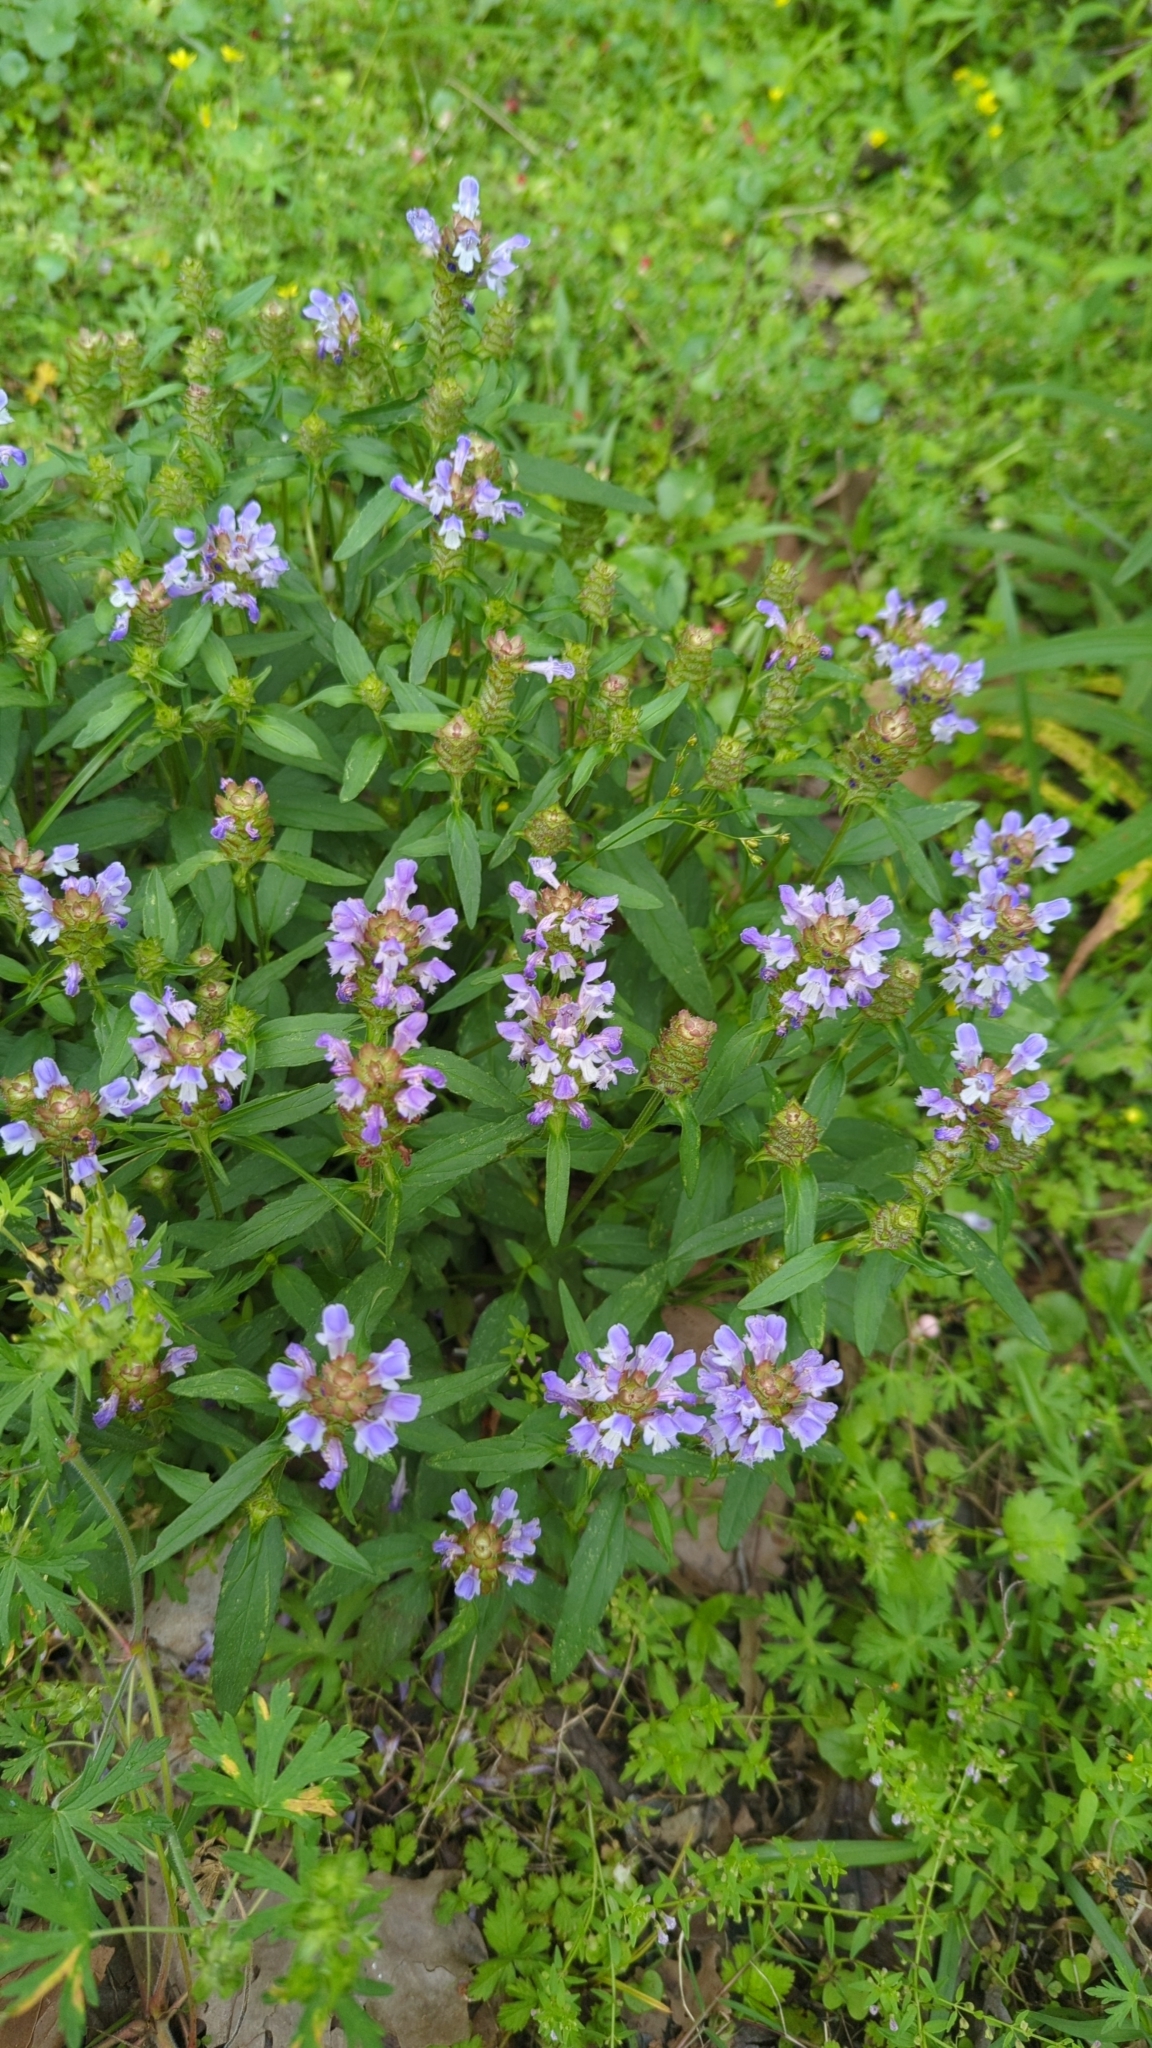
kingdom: Plantae
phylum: Tracheophyta
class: Magnoliopsida
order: Lamiales
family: Lamiaceae
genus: Prunella
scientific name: Prunella vulgaris
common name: Heal-all
